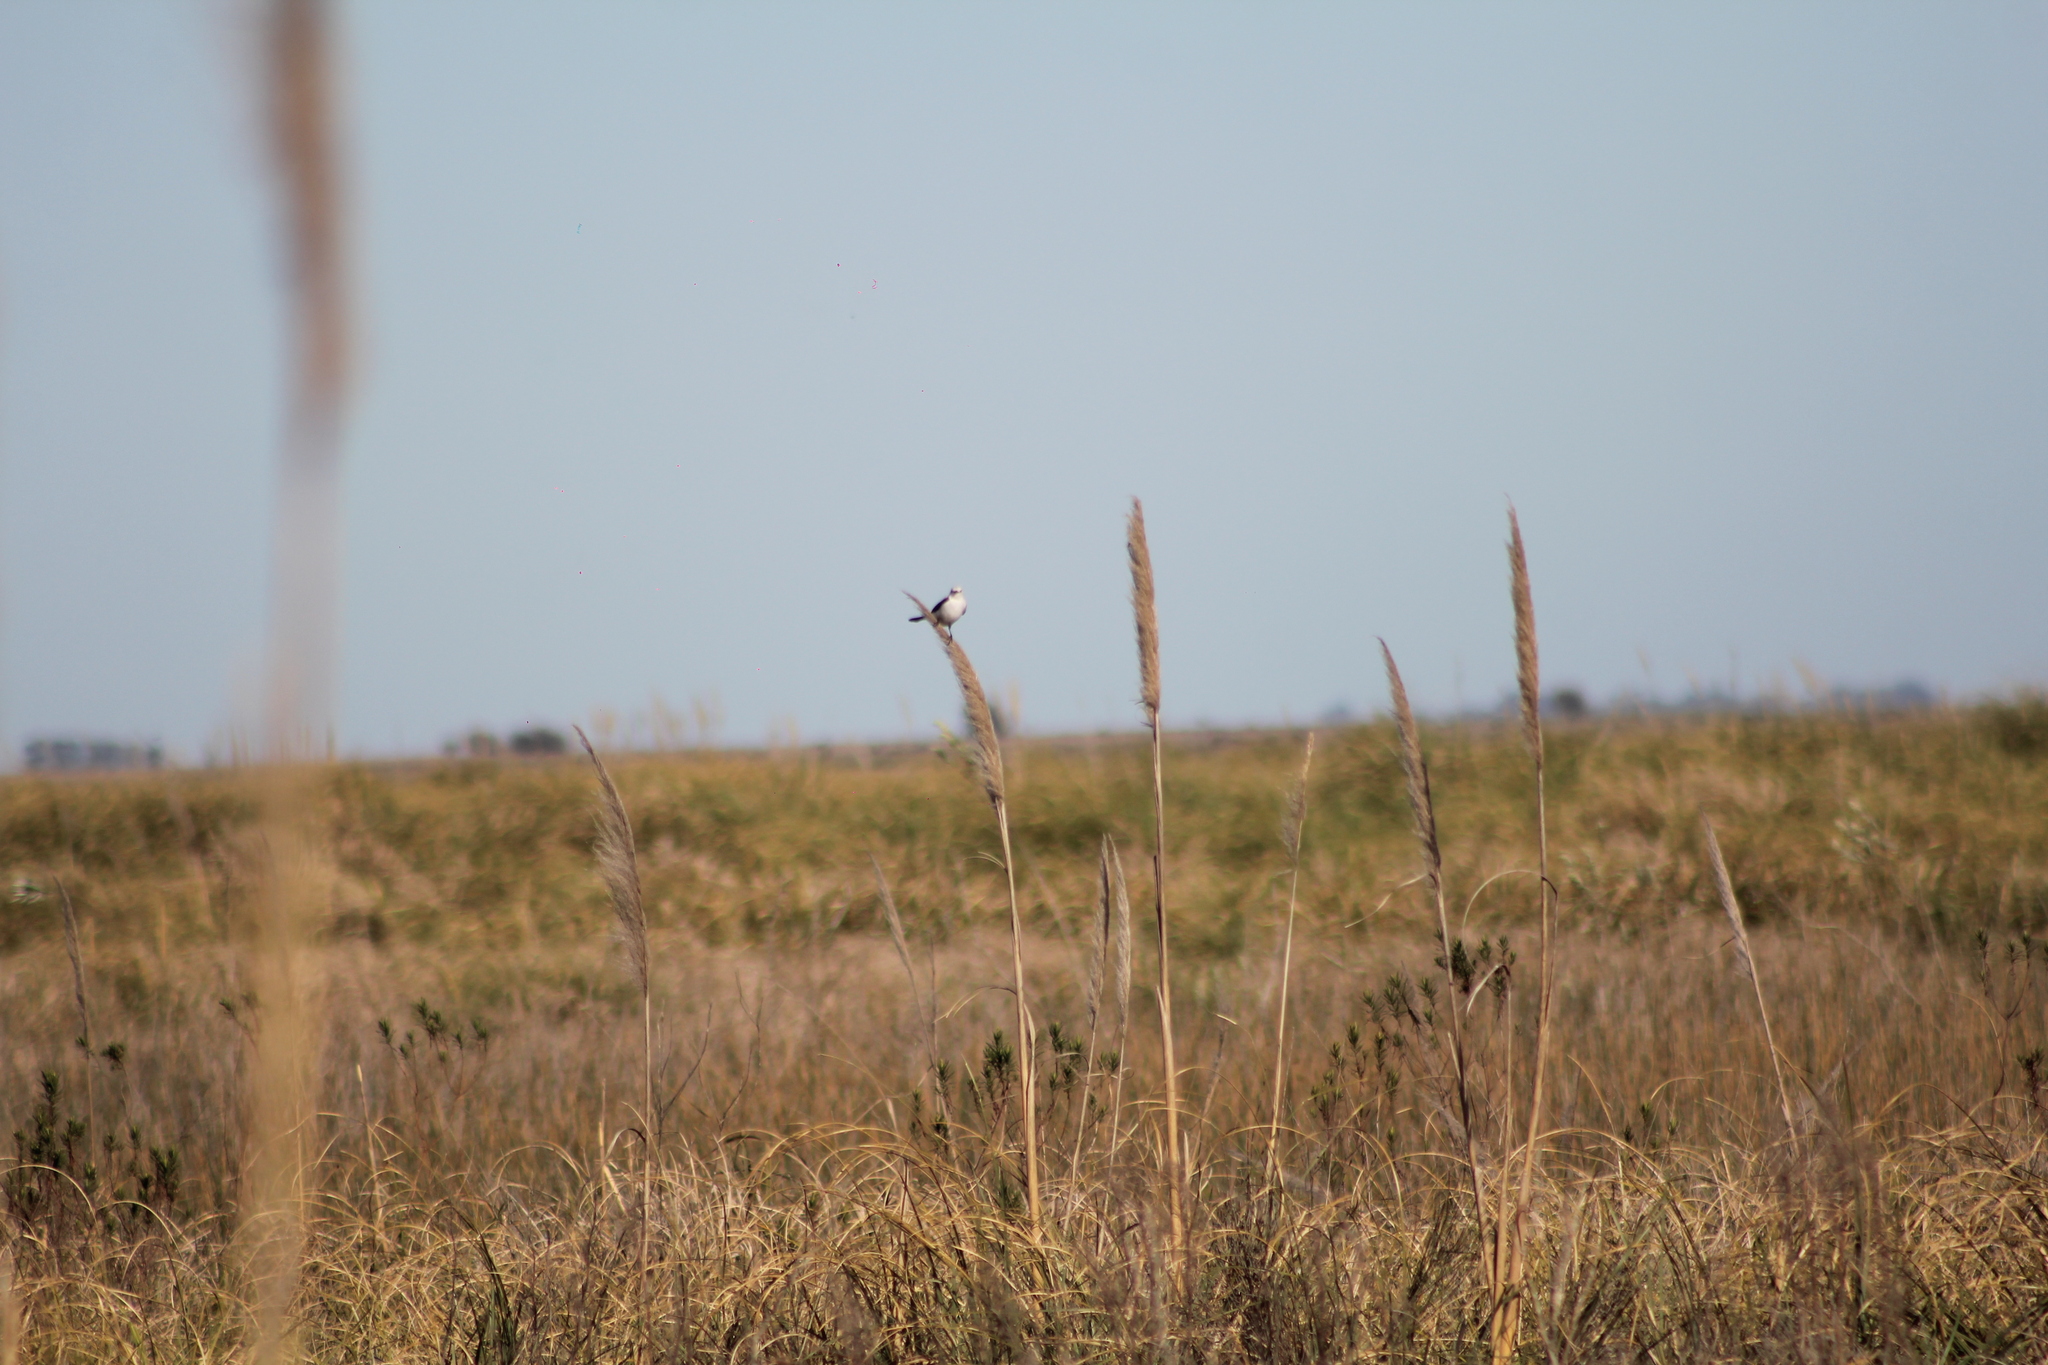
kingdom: Animalia
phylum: Chordata
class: Aves
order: Passeriformes
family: Tyrannidae
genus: Heteroxolmis
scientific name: Heteroxolmis dominicana
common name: Black-and-white monjita
